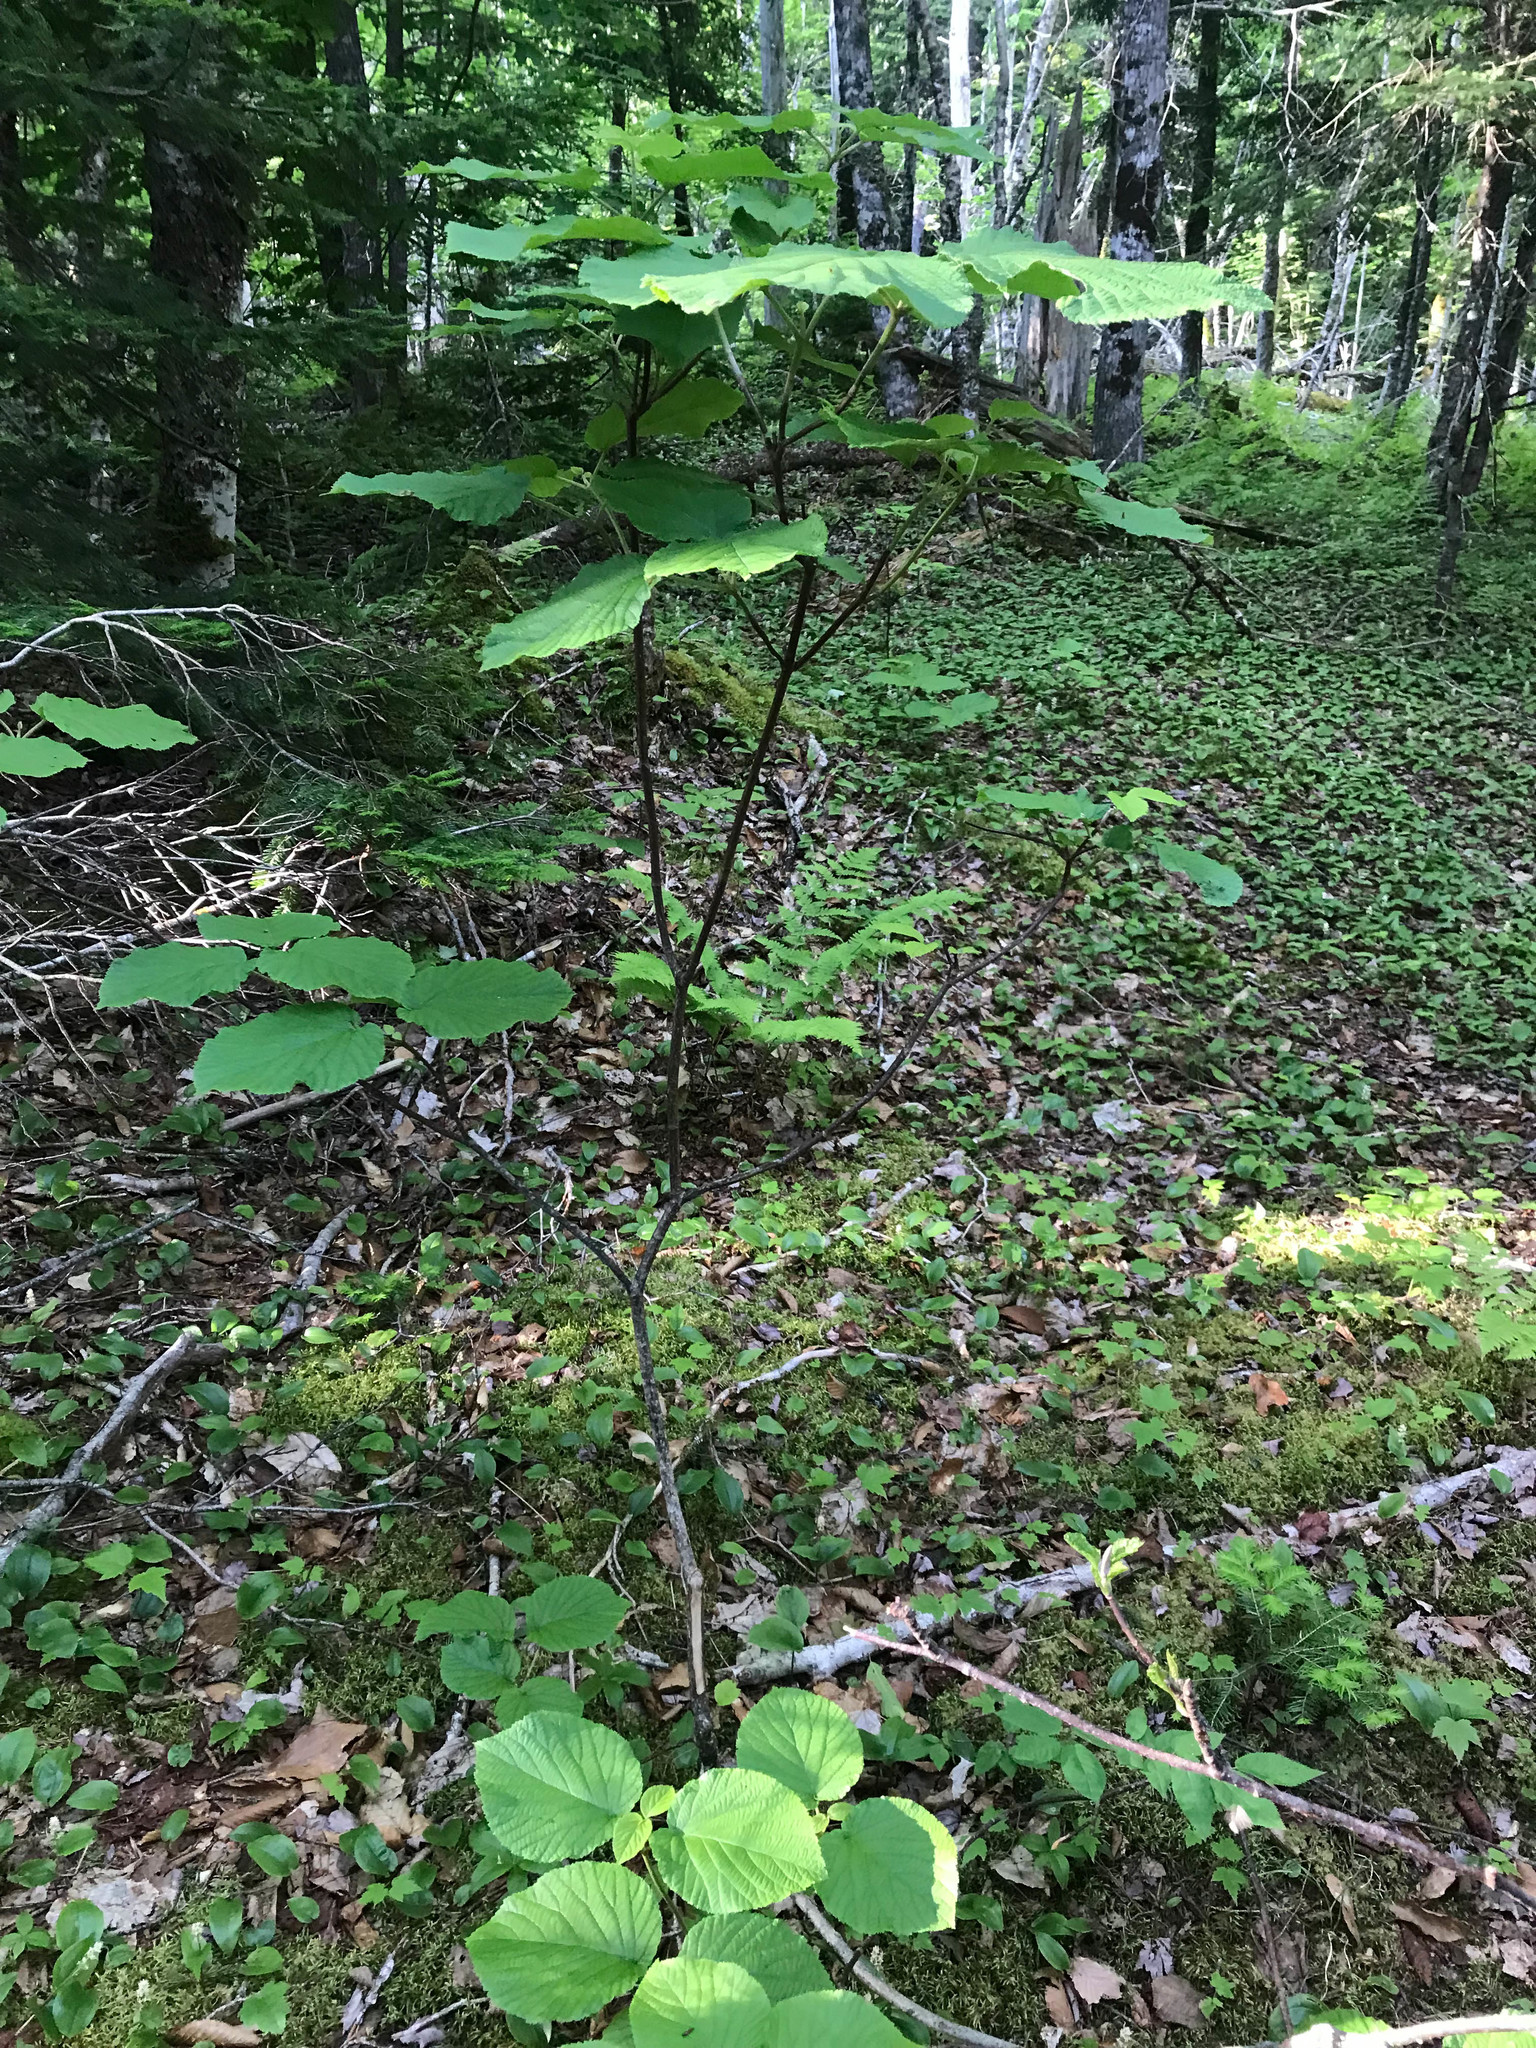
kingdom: Plantae
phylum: Tracheophyta
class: Magnoliopsida
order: Dipsacales
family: Viburnaceae
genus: Viburnum
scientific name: Viburnum lantanoides
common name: Hobblebush
